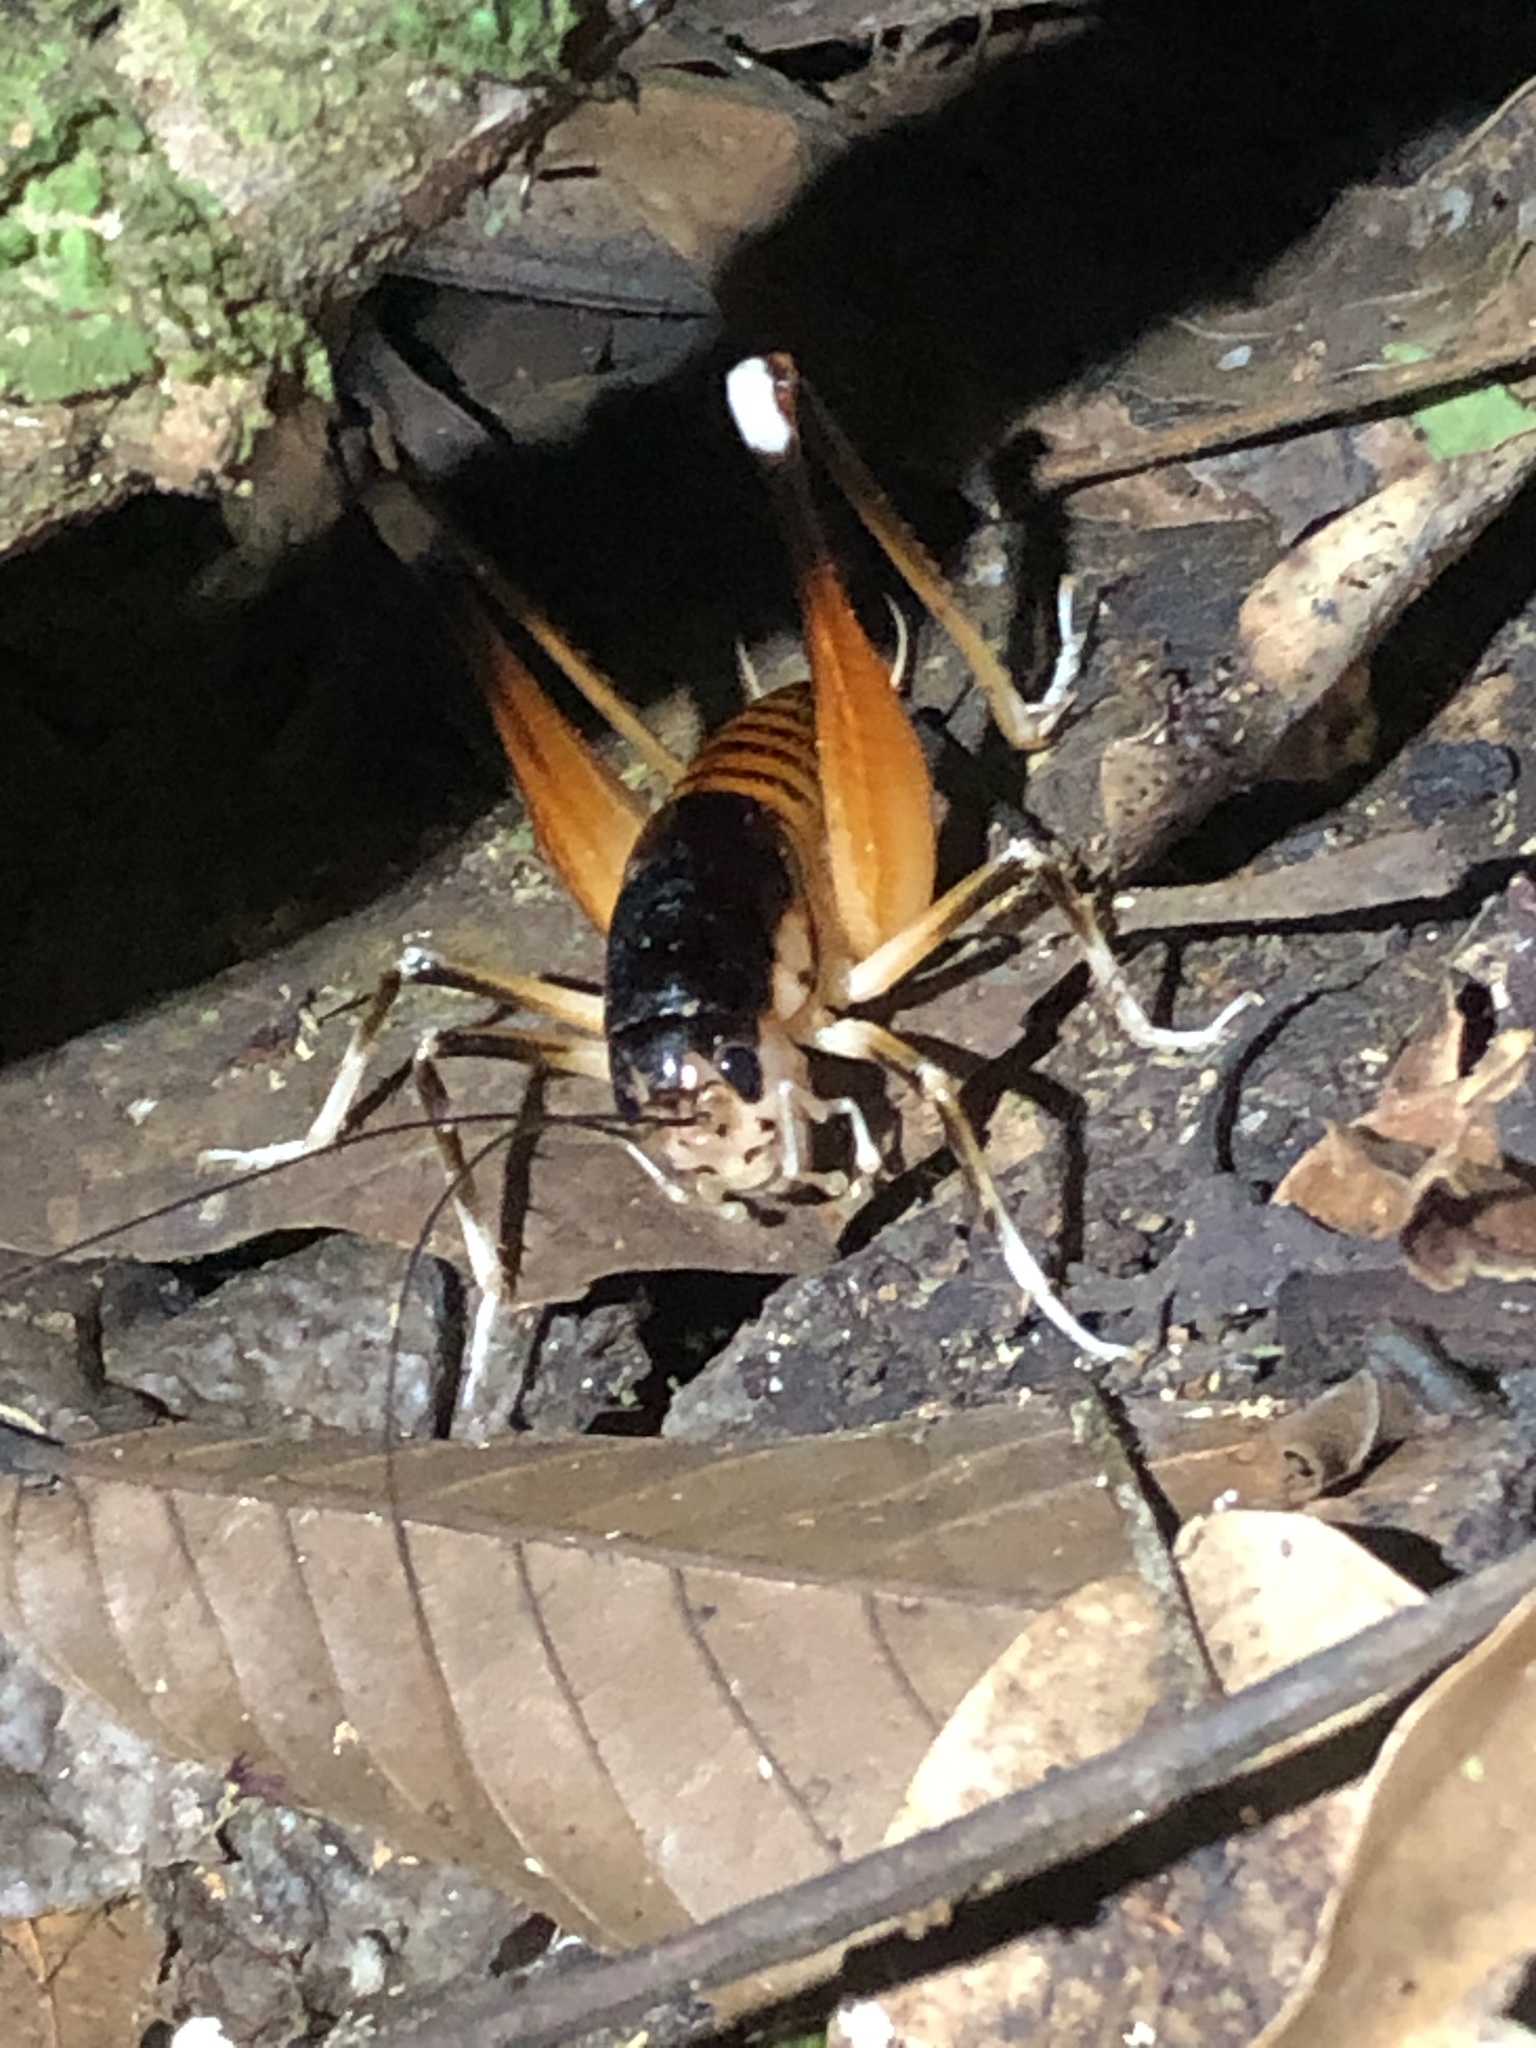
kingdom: Animalia
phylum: Arthropoda
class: Insecta
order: Orthoptera
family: Anostostomatidae
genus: Apotetamenus
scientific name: Apotetamenus amazonae
